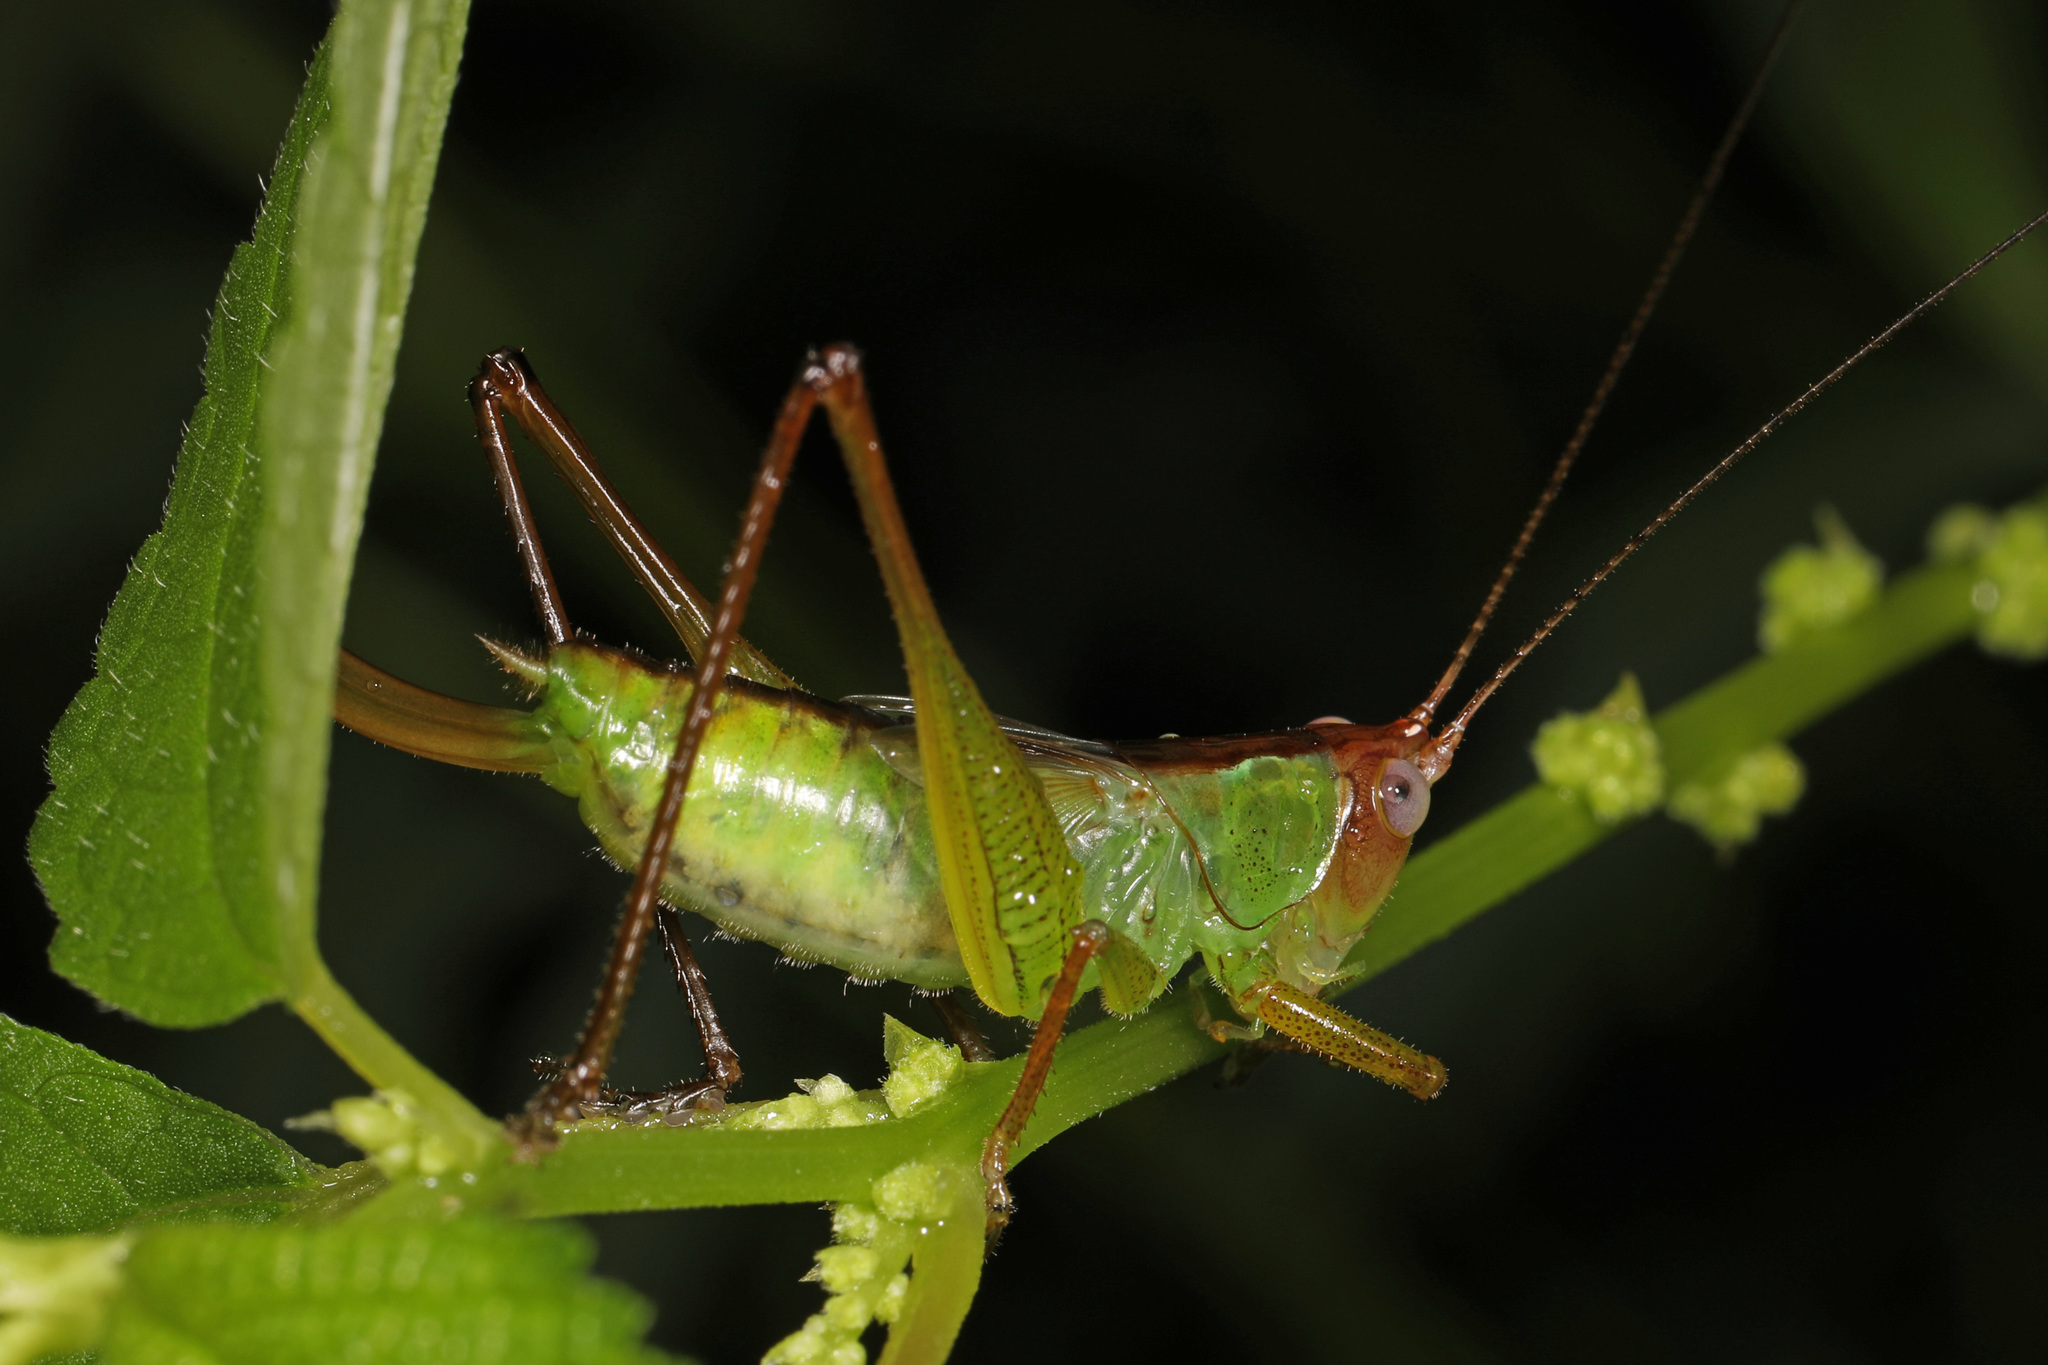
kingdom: Animalia
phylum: Arthropoda
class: Insecta
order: Orthoptera
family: Tettigoniidae
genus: Orchelimum
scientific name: Orchelimum pulchellum
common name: Handsome meadow katydid
